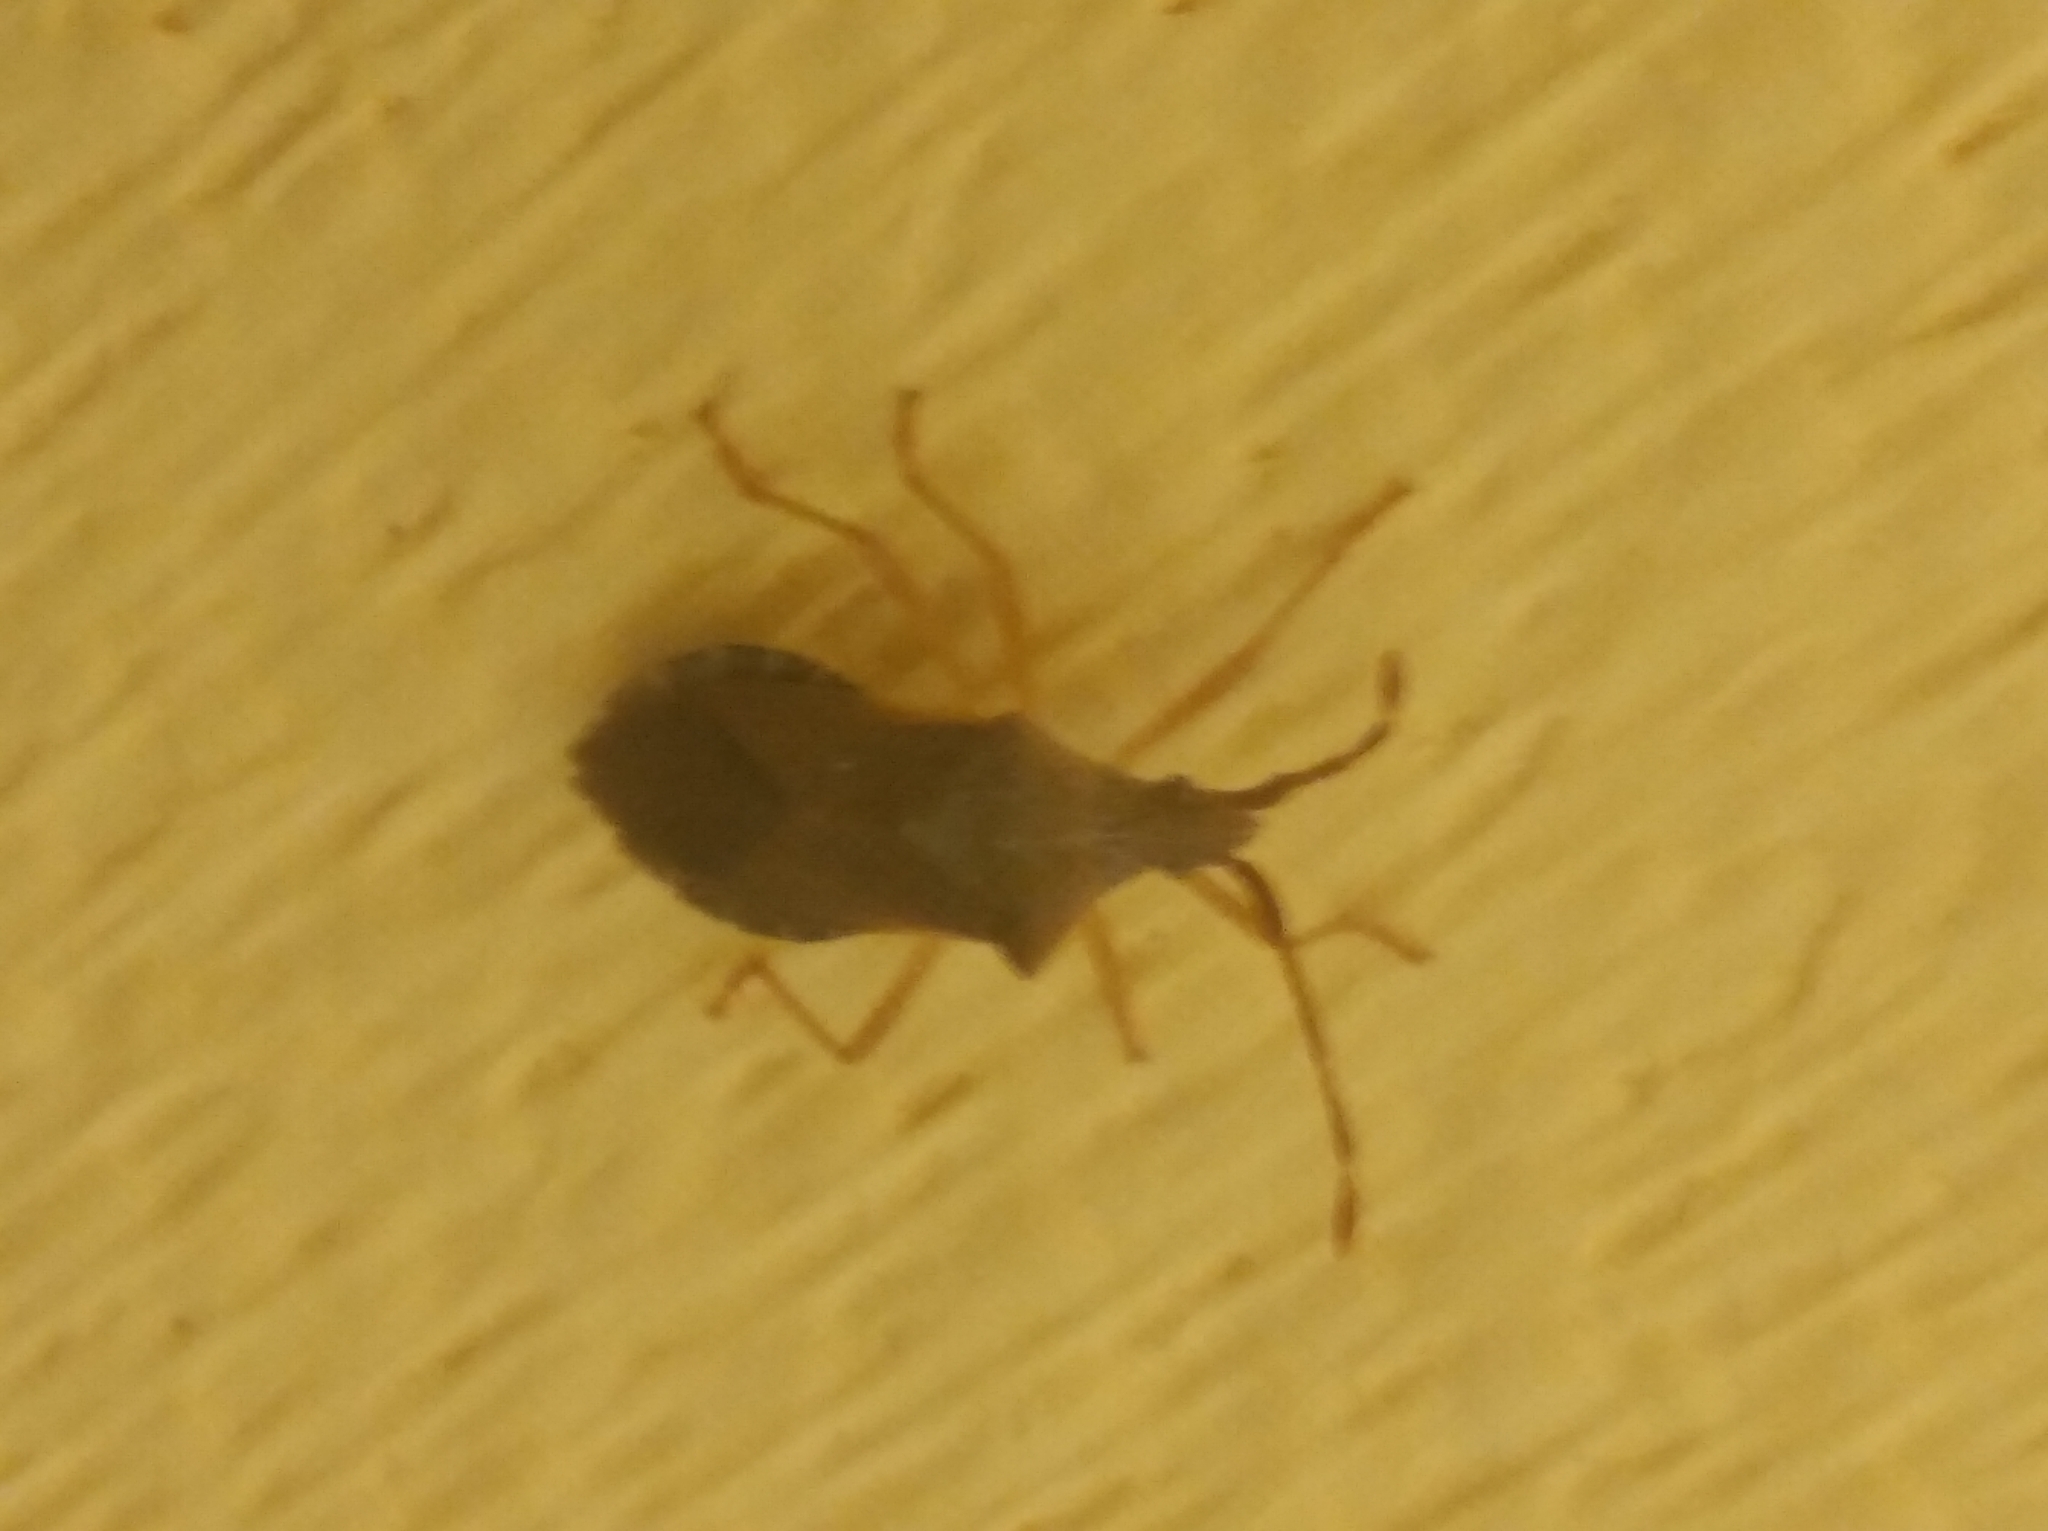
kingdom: Animalia
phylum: Arthropoda
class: Insecta
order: Hemiptera
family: Coreidae
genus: Gonocerus
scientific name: Gonocerus acuteangulatus
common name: Box bug
